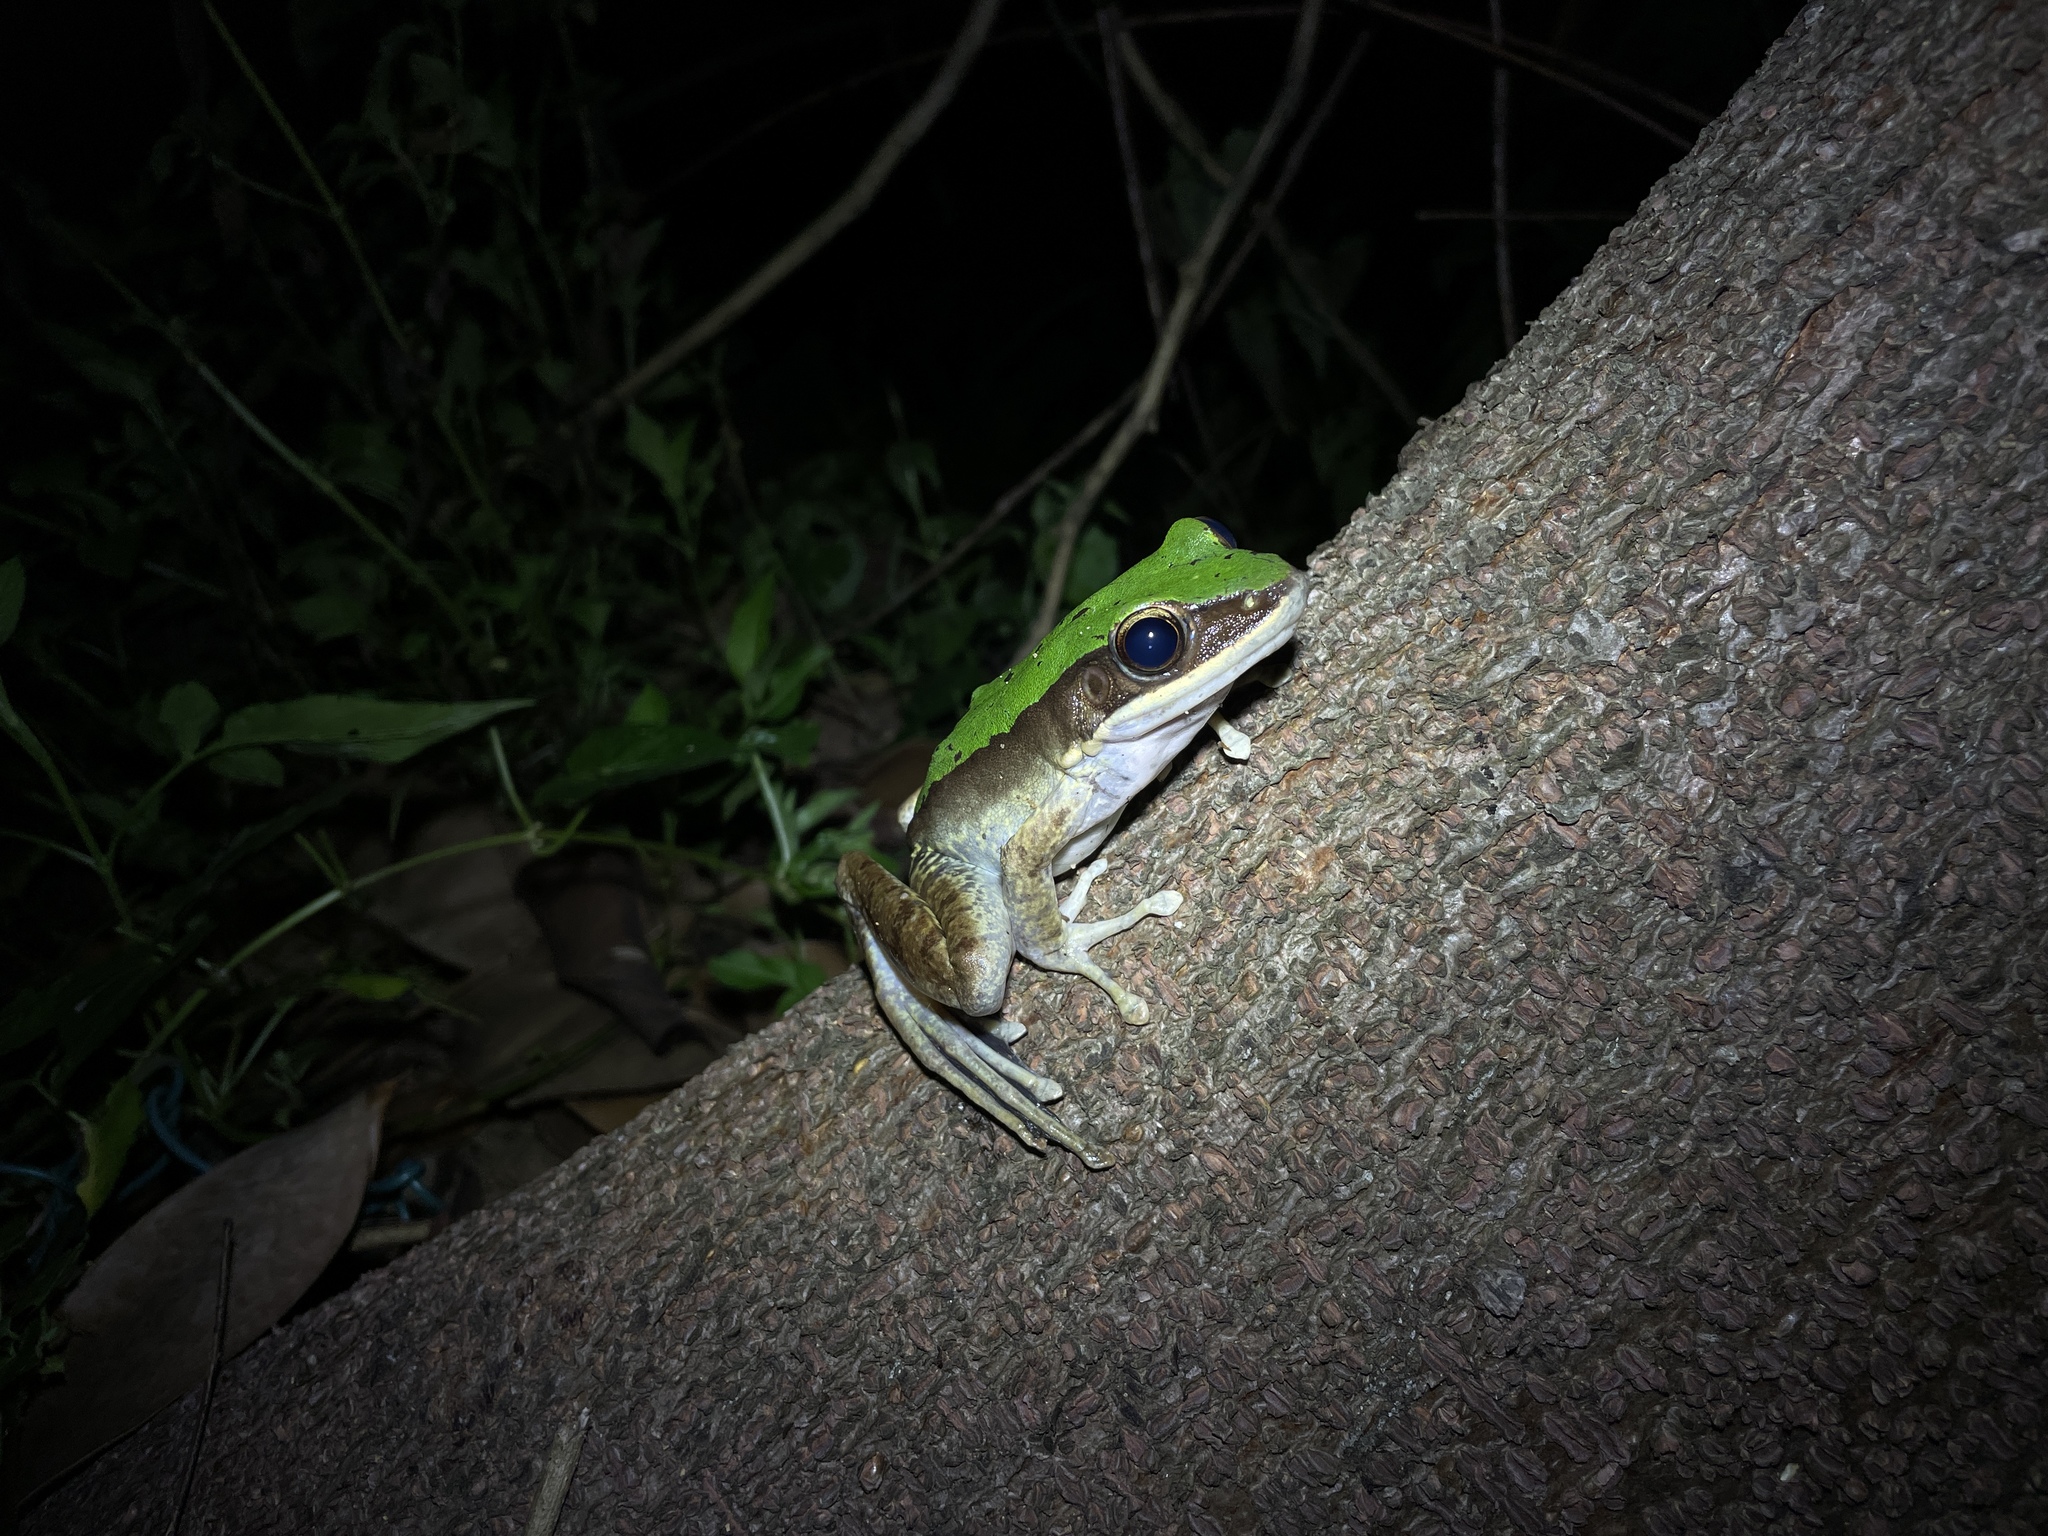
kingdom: Animalia
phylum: Chordata
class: Amphibia
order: Anura
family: Ranidae
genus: Odorrana
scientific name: Odorrana graminea
